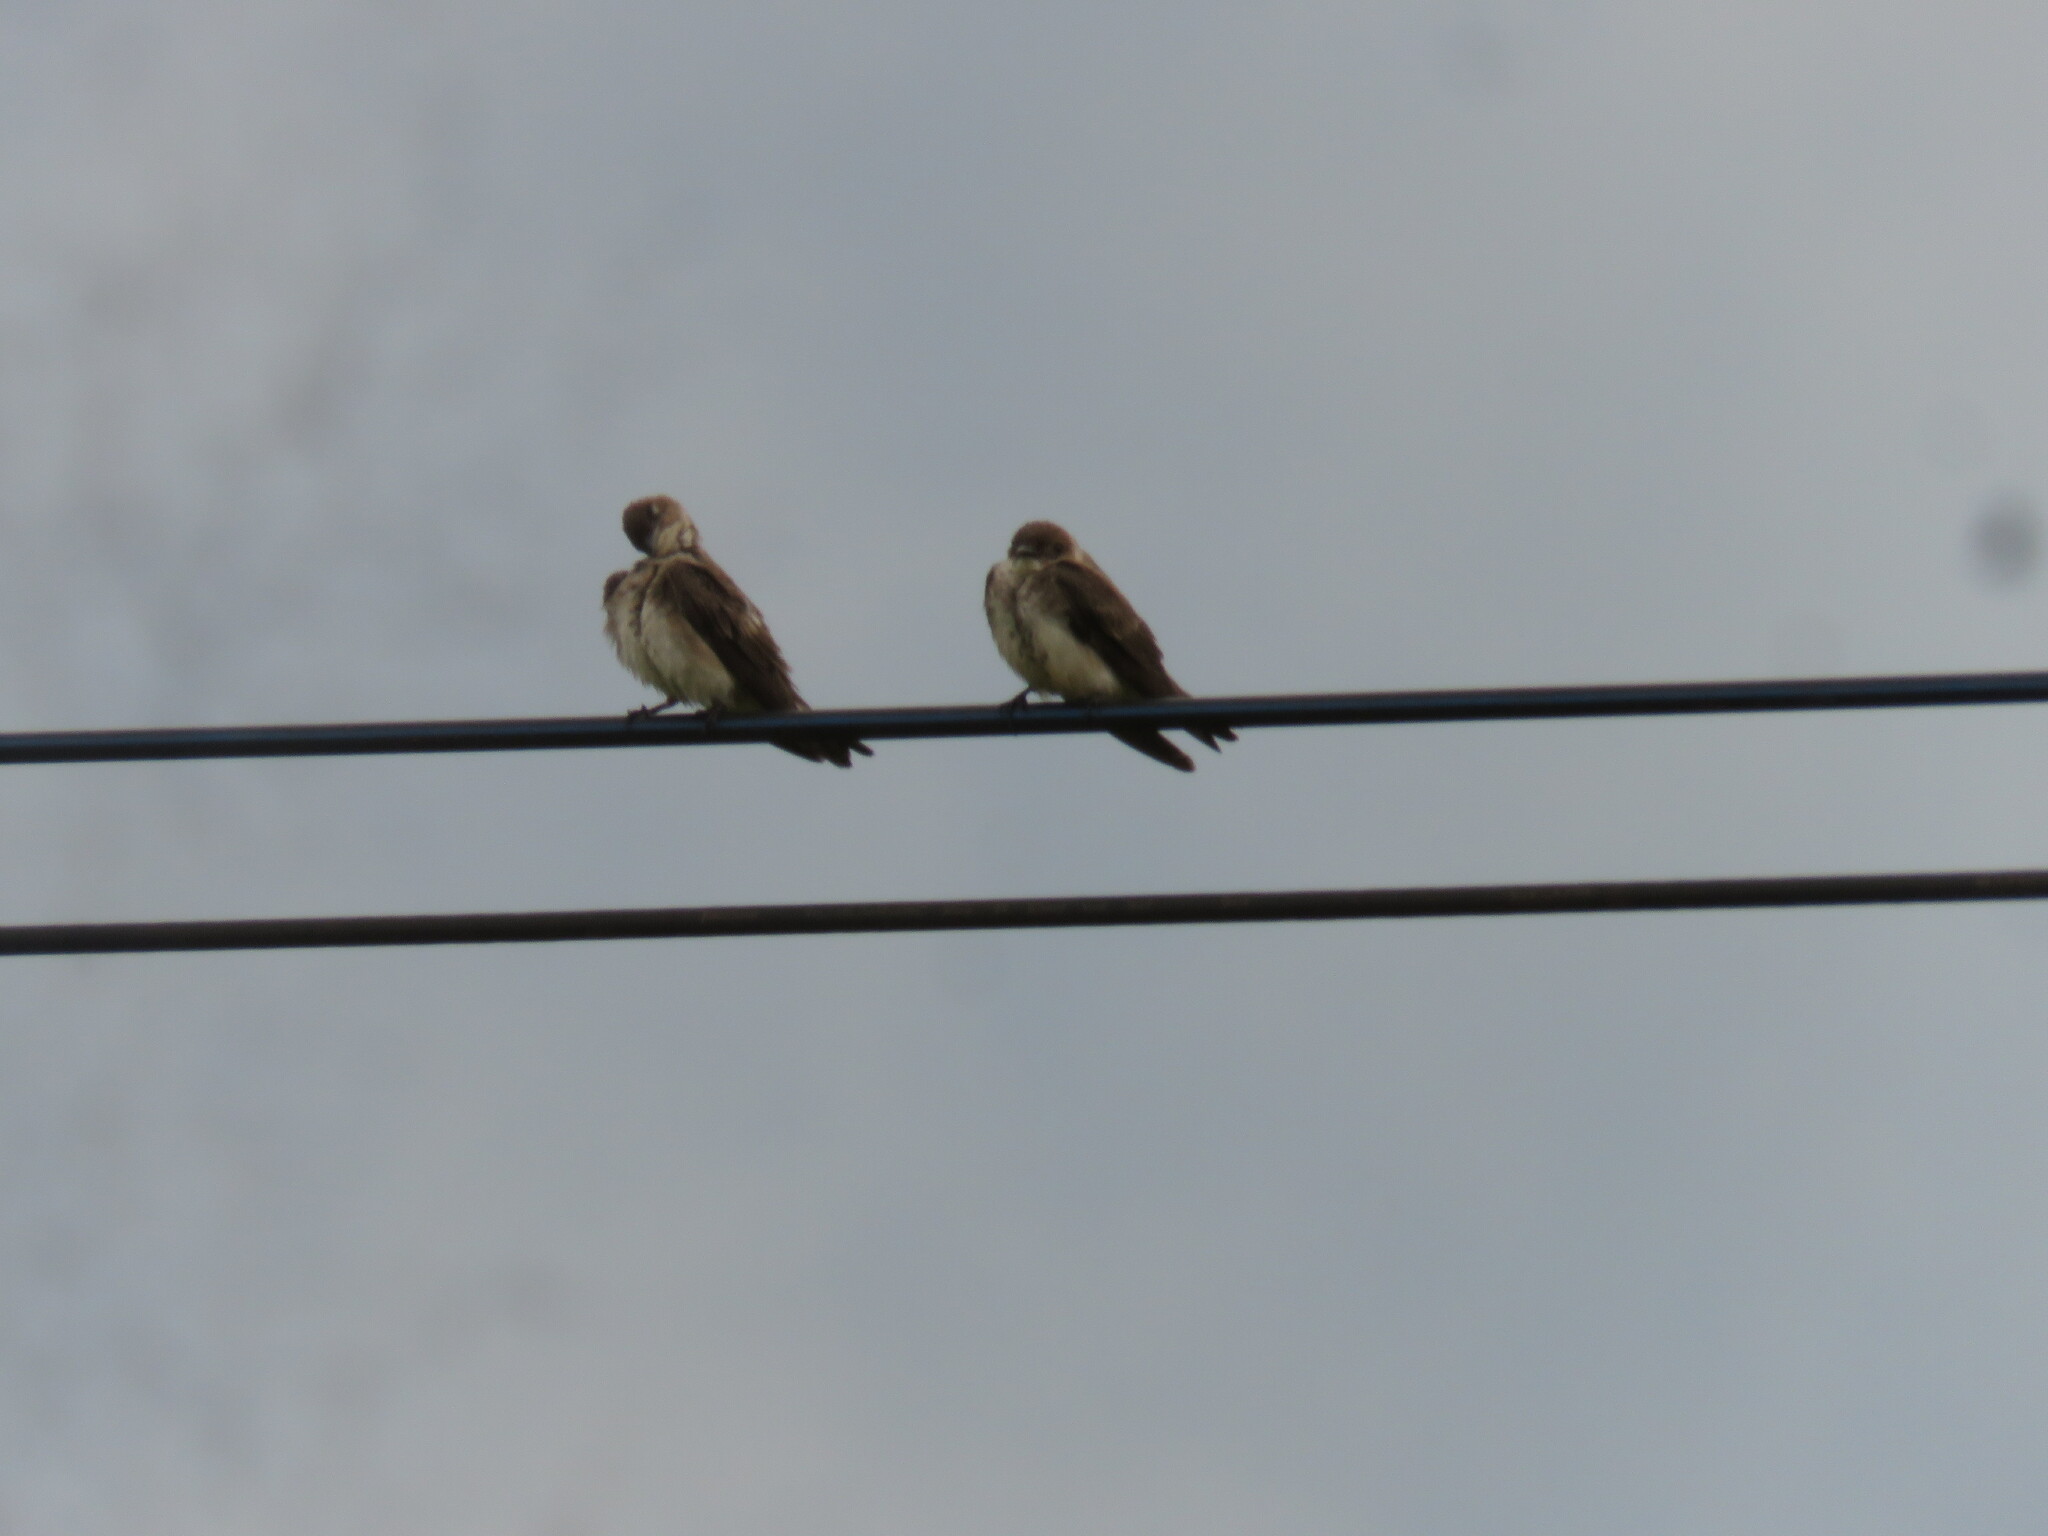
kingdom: Animalia
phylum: Chordata
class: Aves
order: Passeriformes
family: Hirundinidae
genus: Progne
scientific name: Progne tapera
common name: Brown-chested martin
